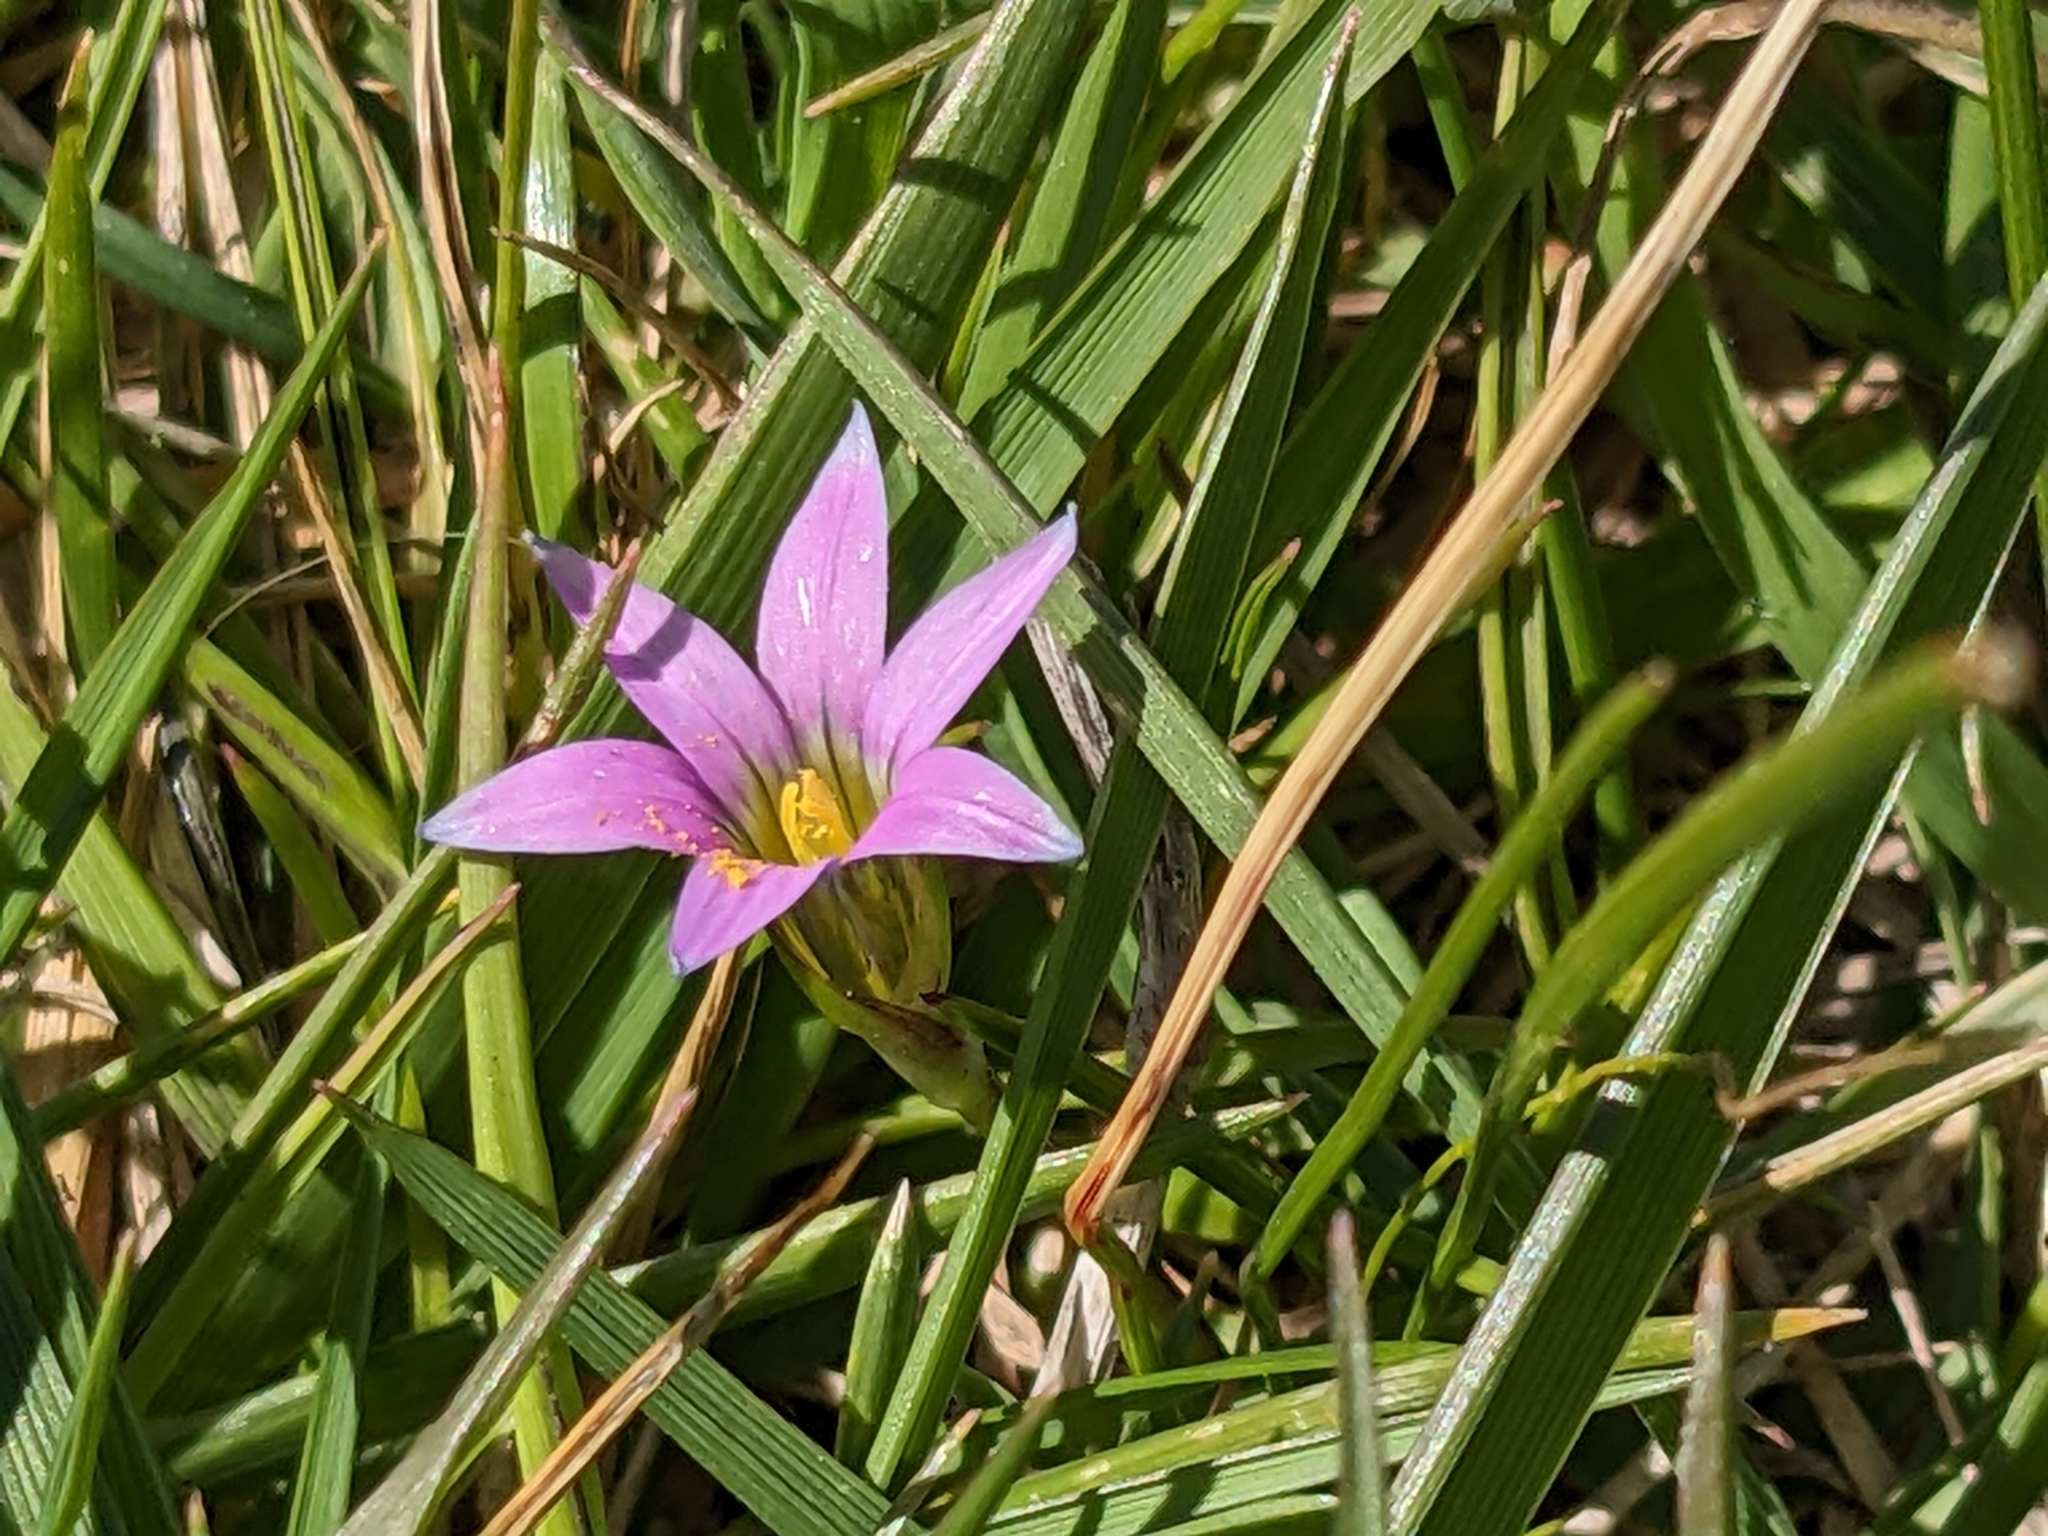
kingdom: Plantae
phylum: Tracheophyta
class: Liliopsida
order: Asparagales
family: Iridaceae
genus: Romulea
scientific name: Romulea rosea
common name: Oniongrass
